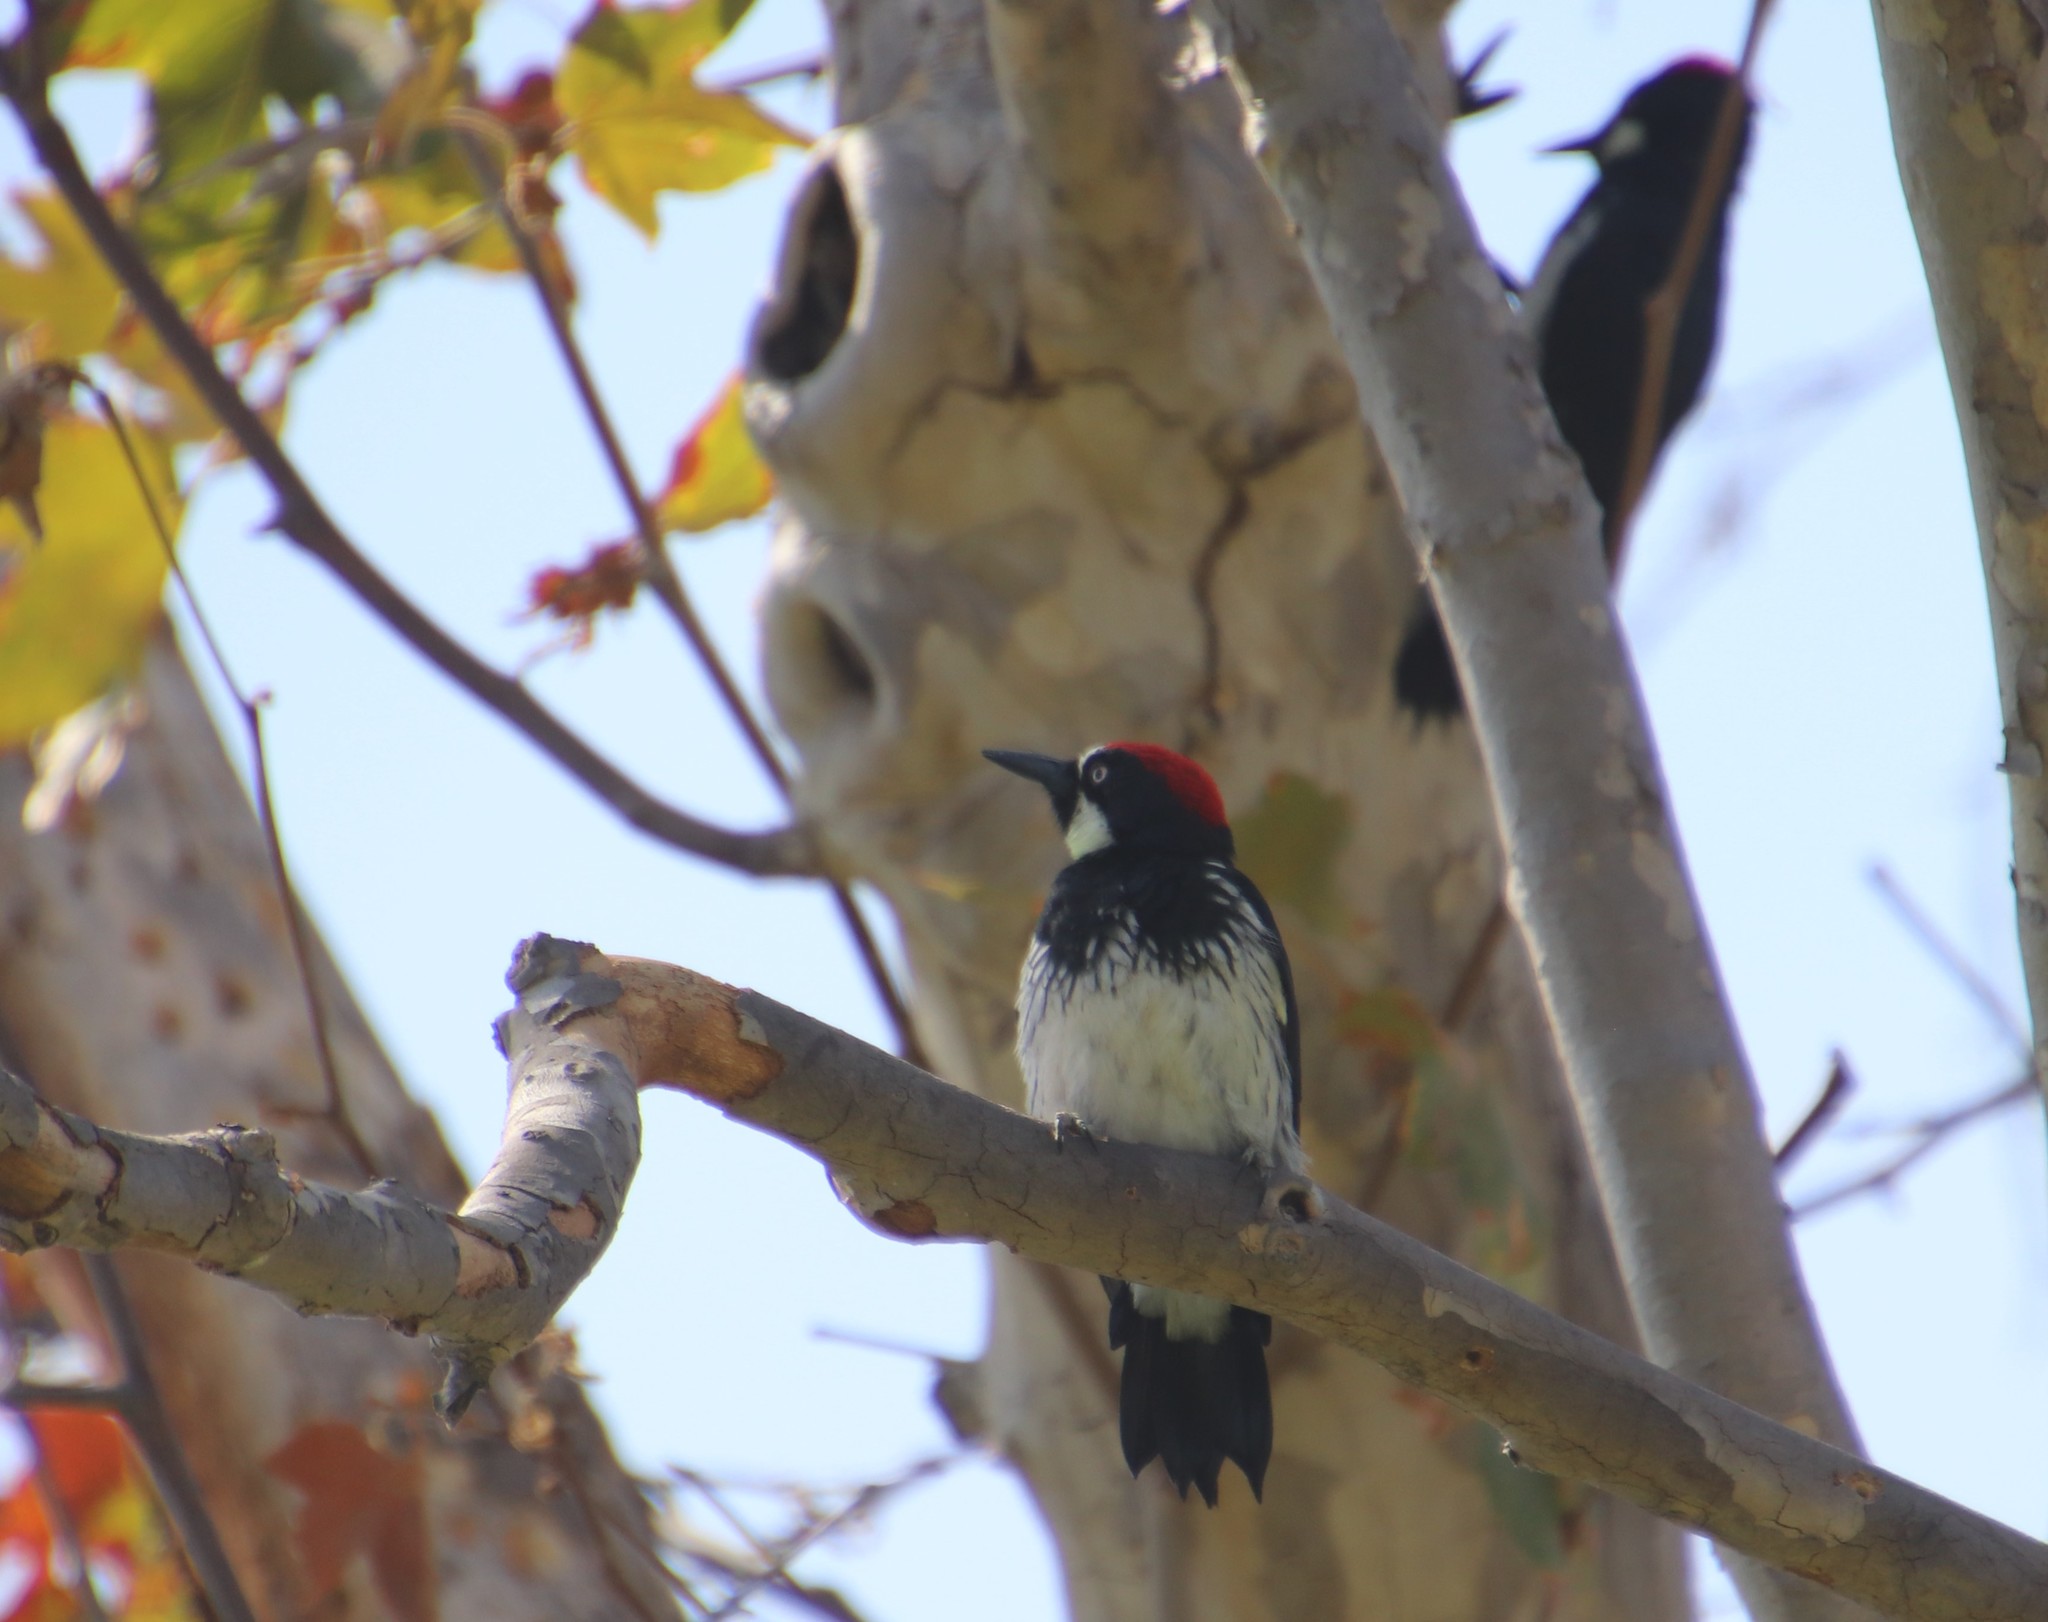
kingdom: Animalia
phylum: Chordata
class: Aves
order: Piciformes
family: Picidae
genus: Melanerpes
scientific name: Melanerpes formicivorus
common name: Acorn woodpecker
